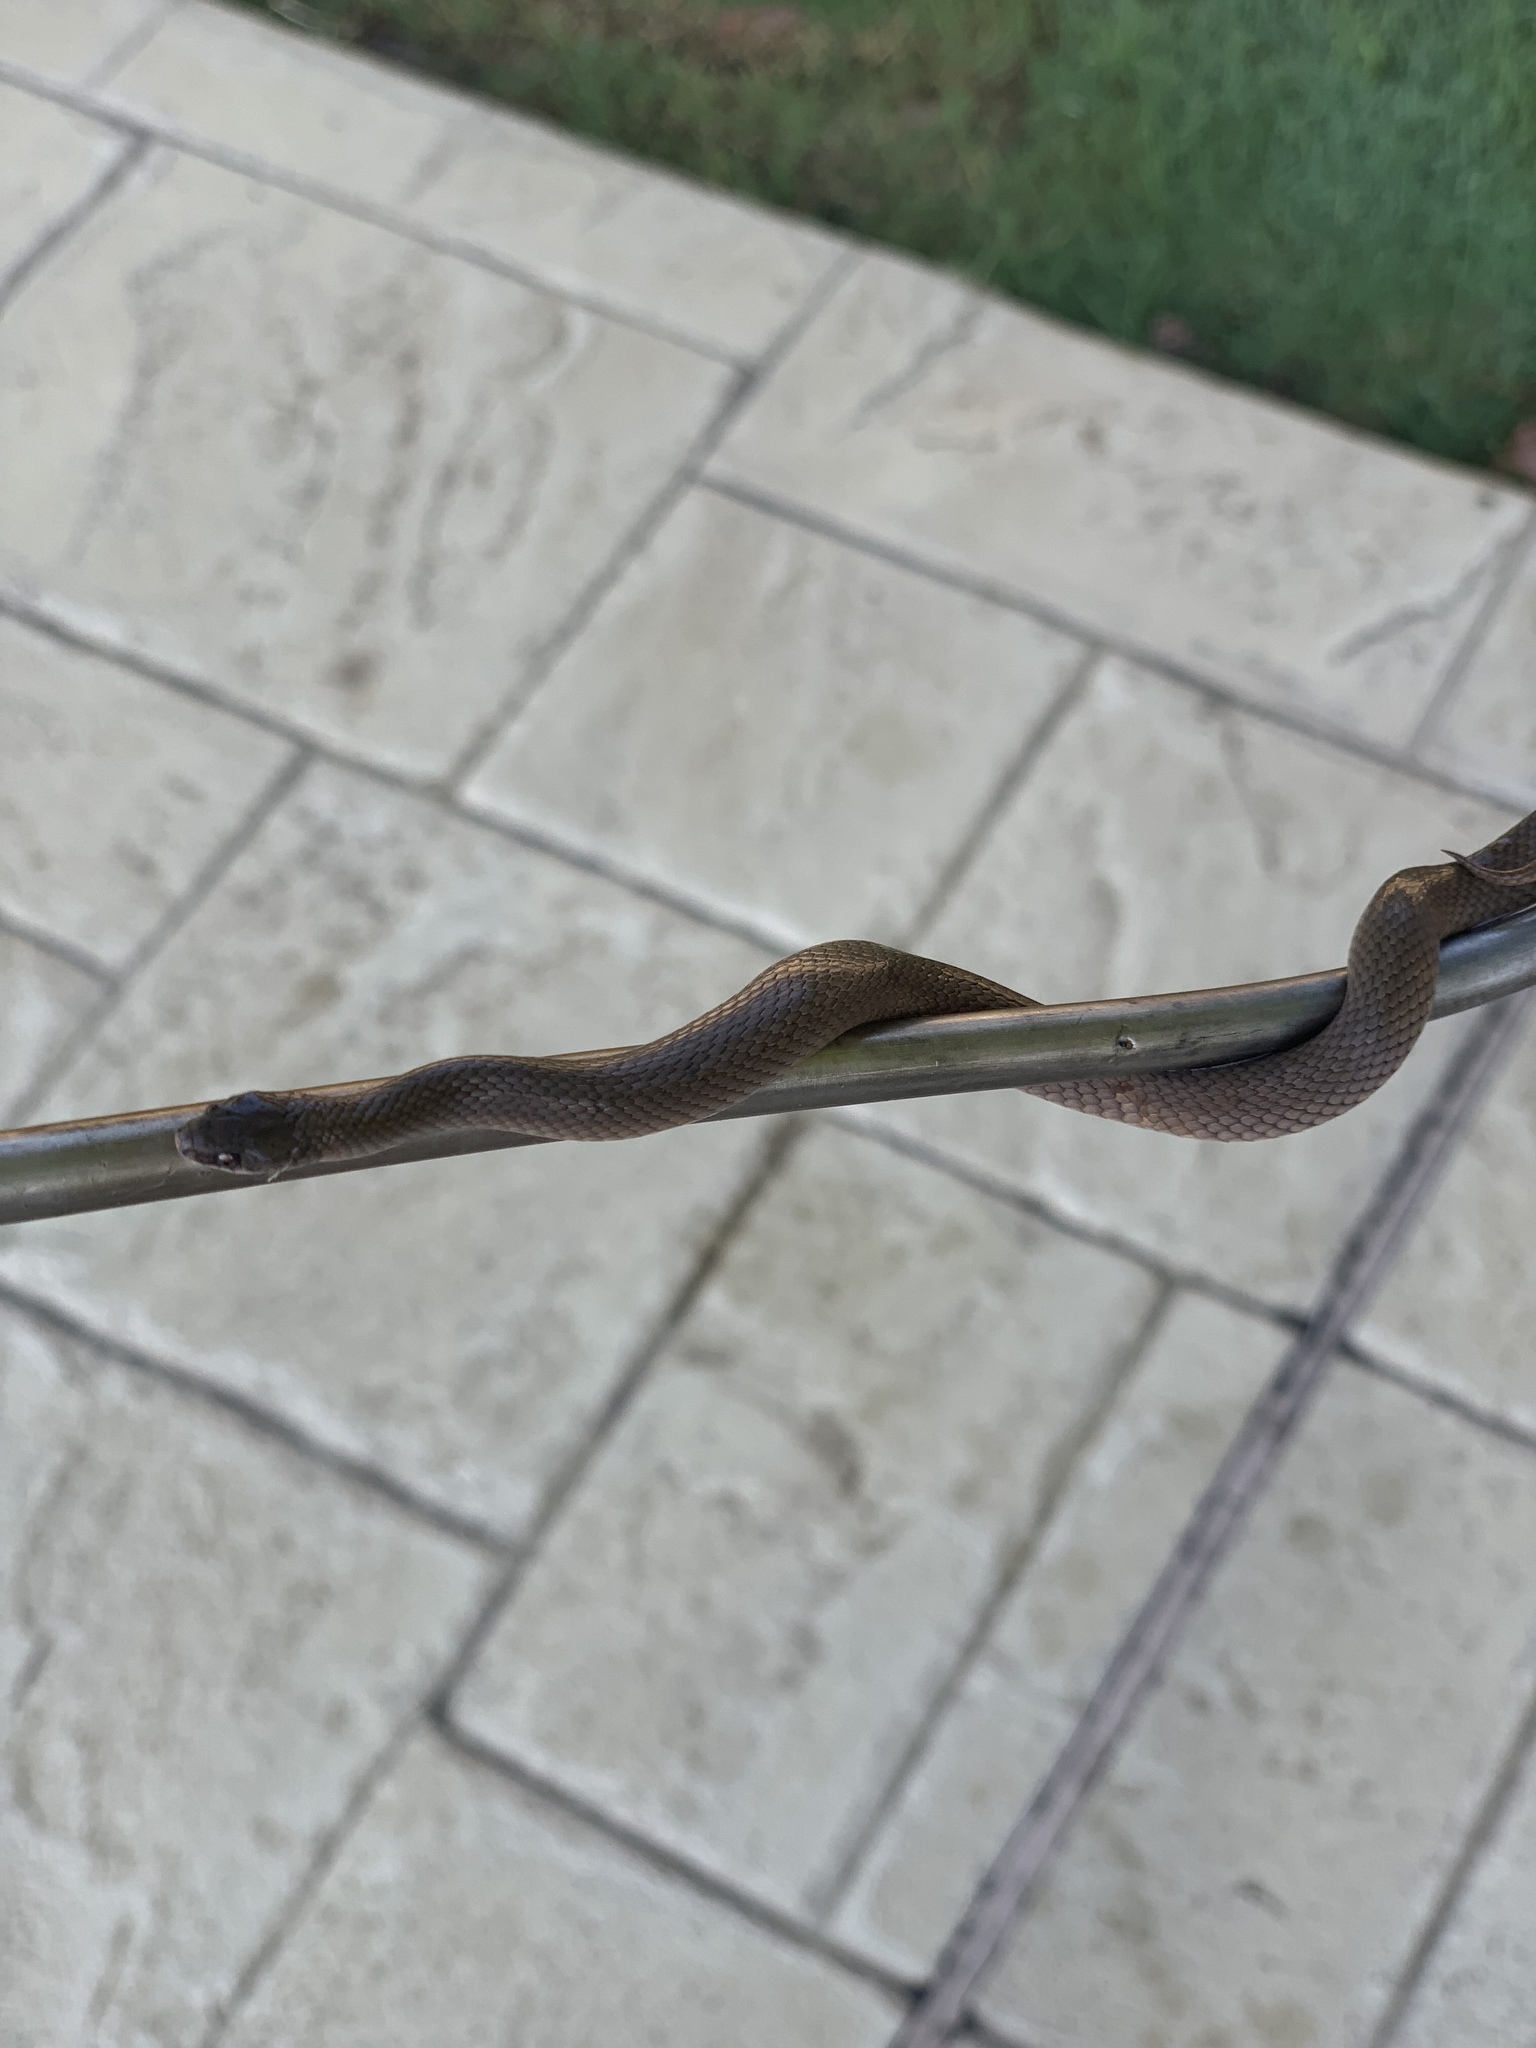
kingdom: Animalia
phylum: Chordata
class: Squamata
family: Colubridae
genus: Virginia
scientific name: Virginia valeriae
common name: Smooth earth snake
